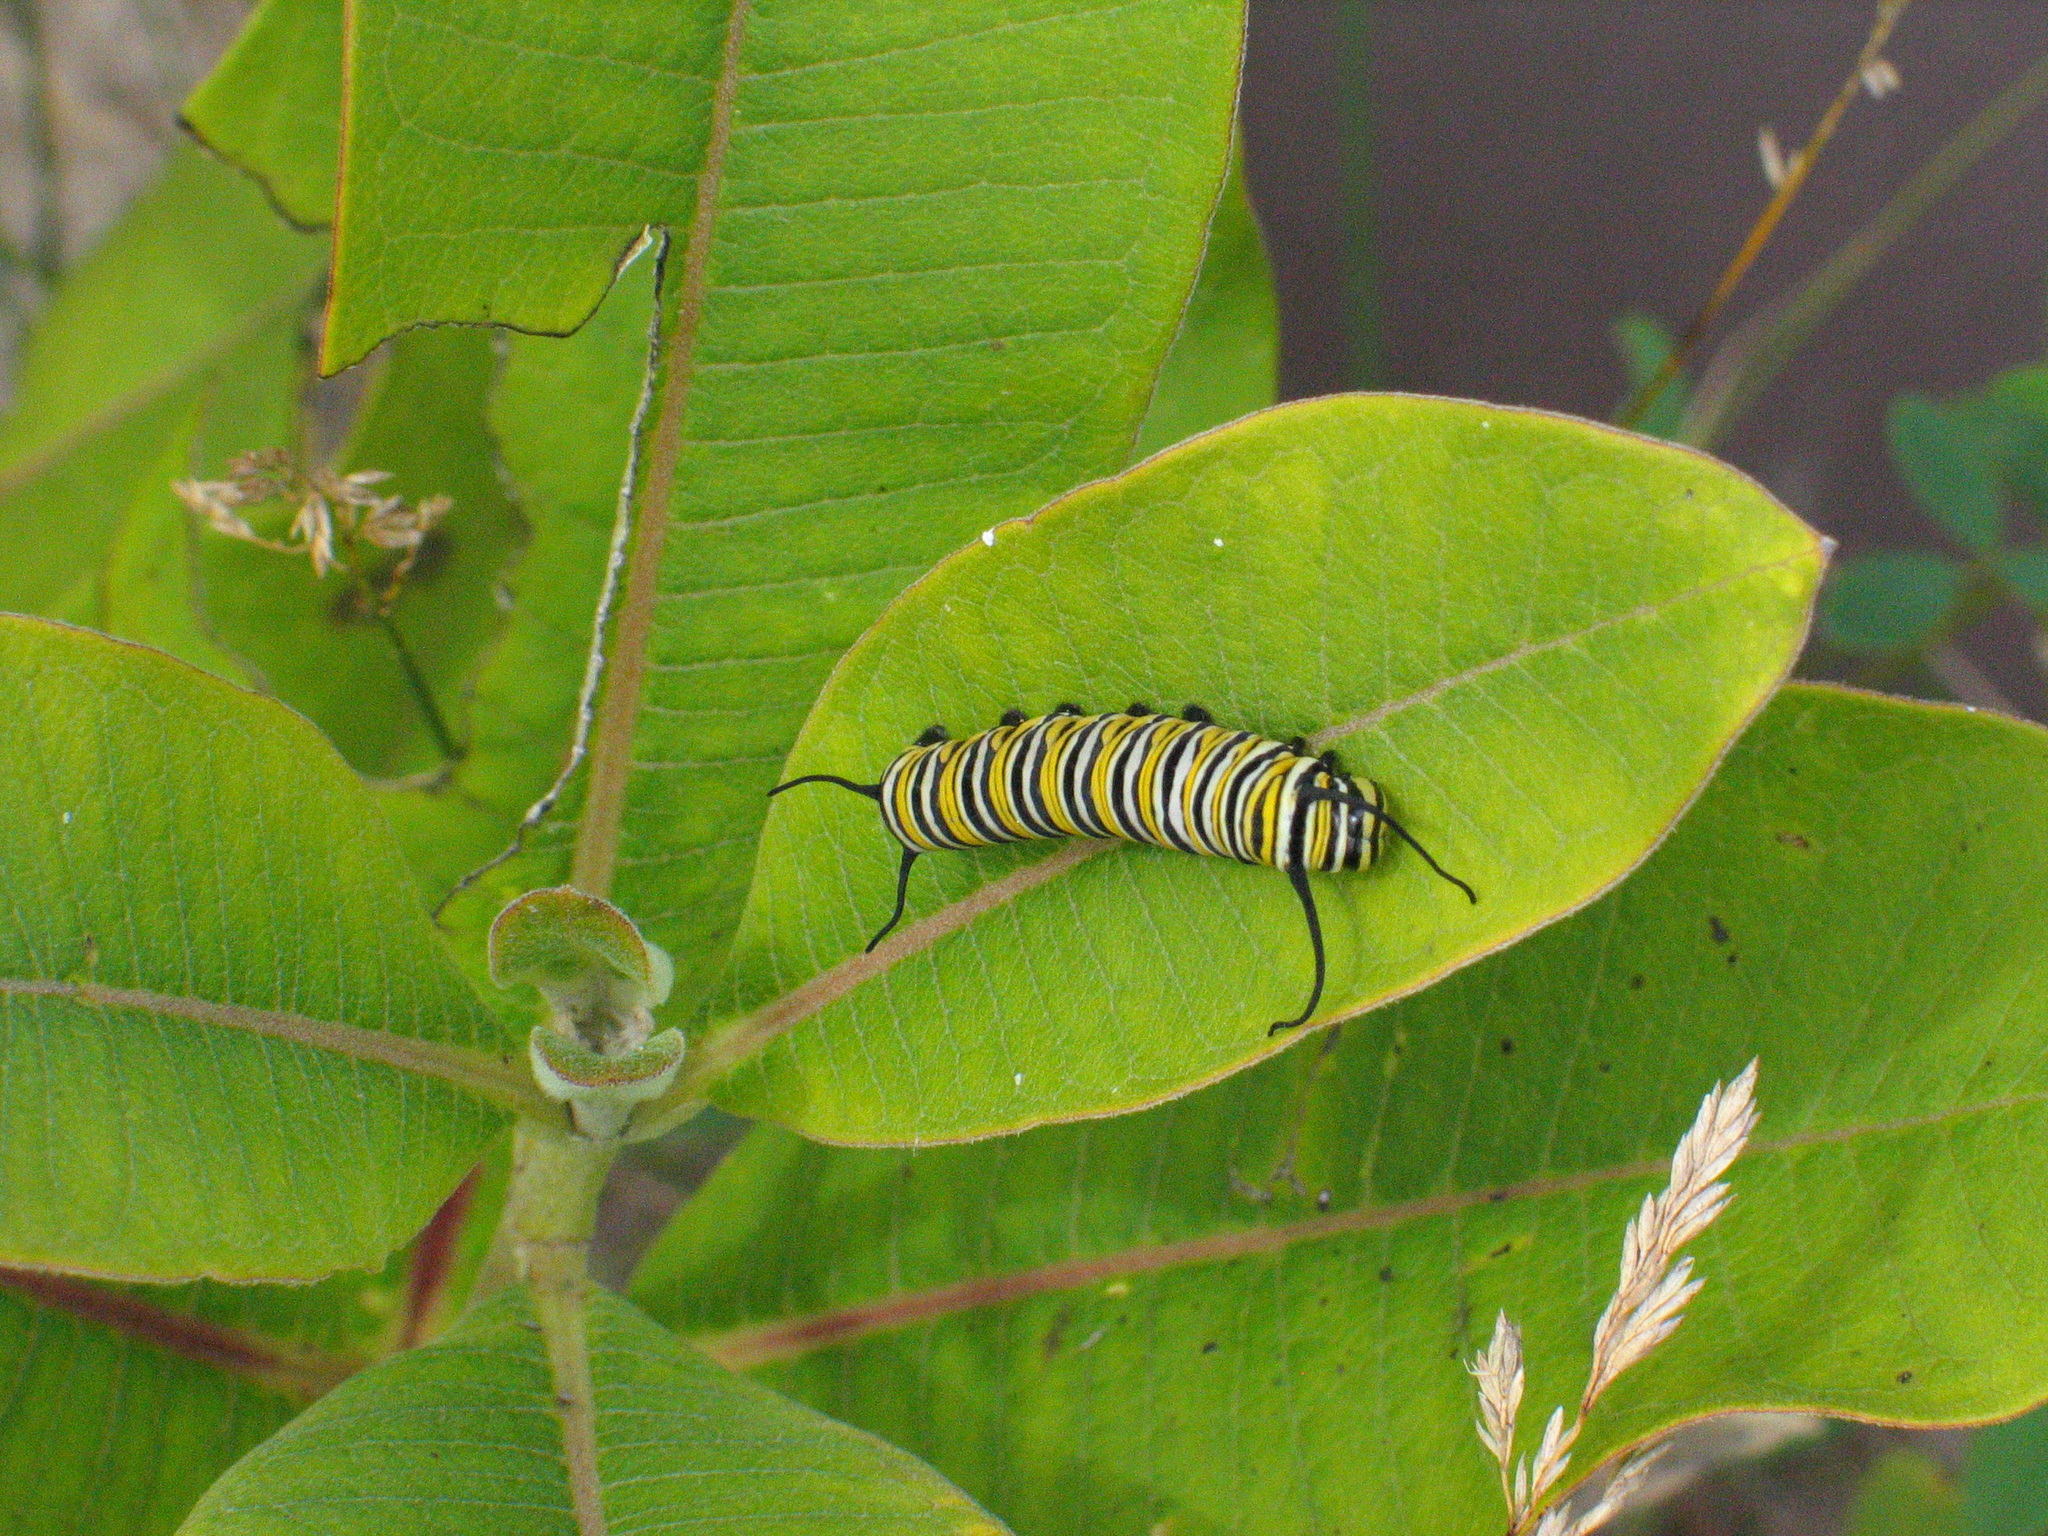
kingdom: Animalia
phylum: Arthropoda
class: Insecta
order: Lepidoptera
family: Nymphalidae
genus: Danaus
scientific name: Danaus plexippus
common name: Monarch
